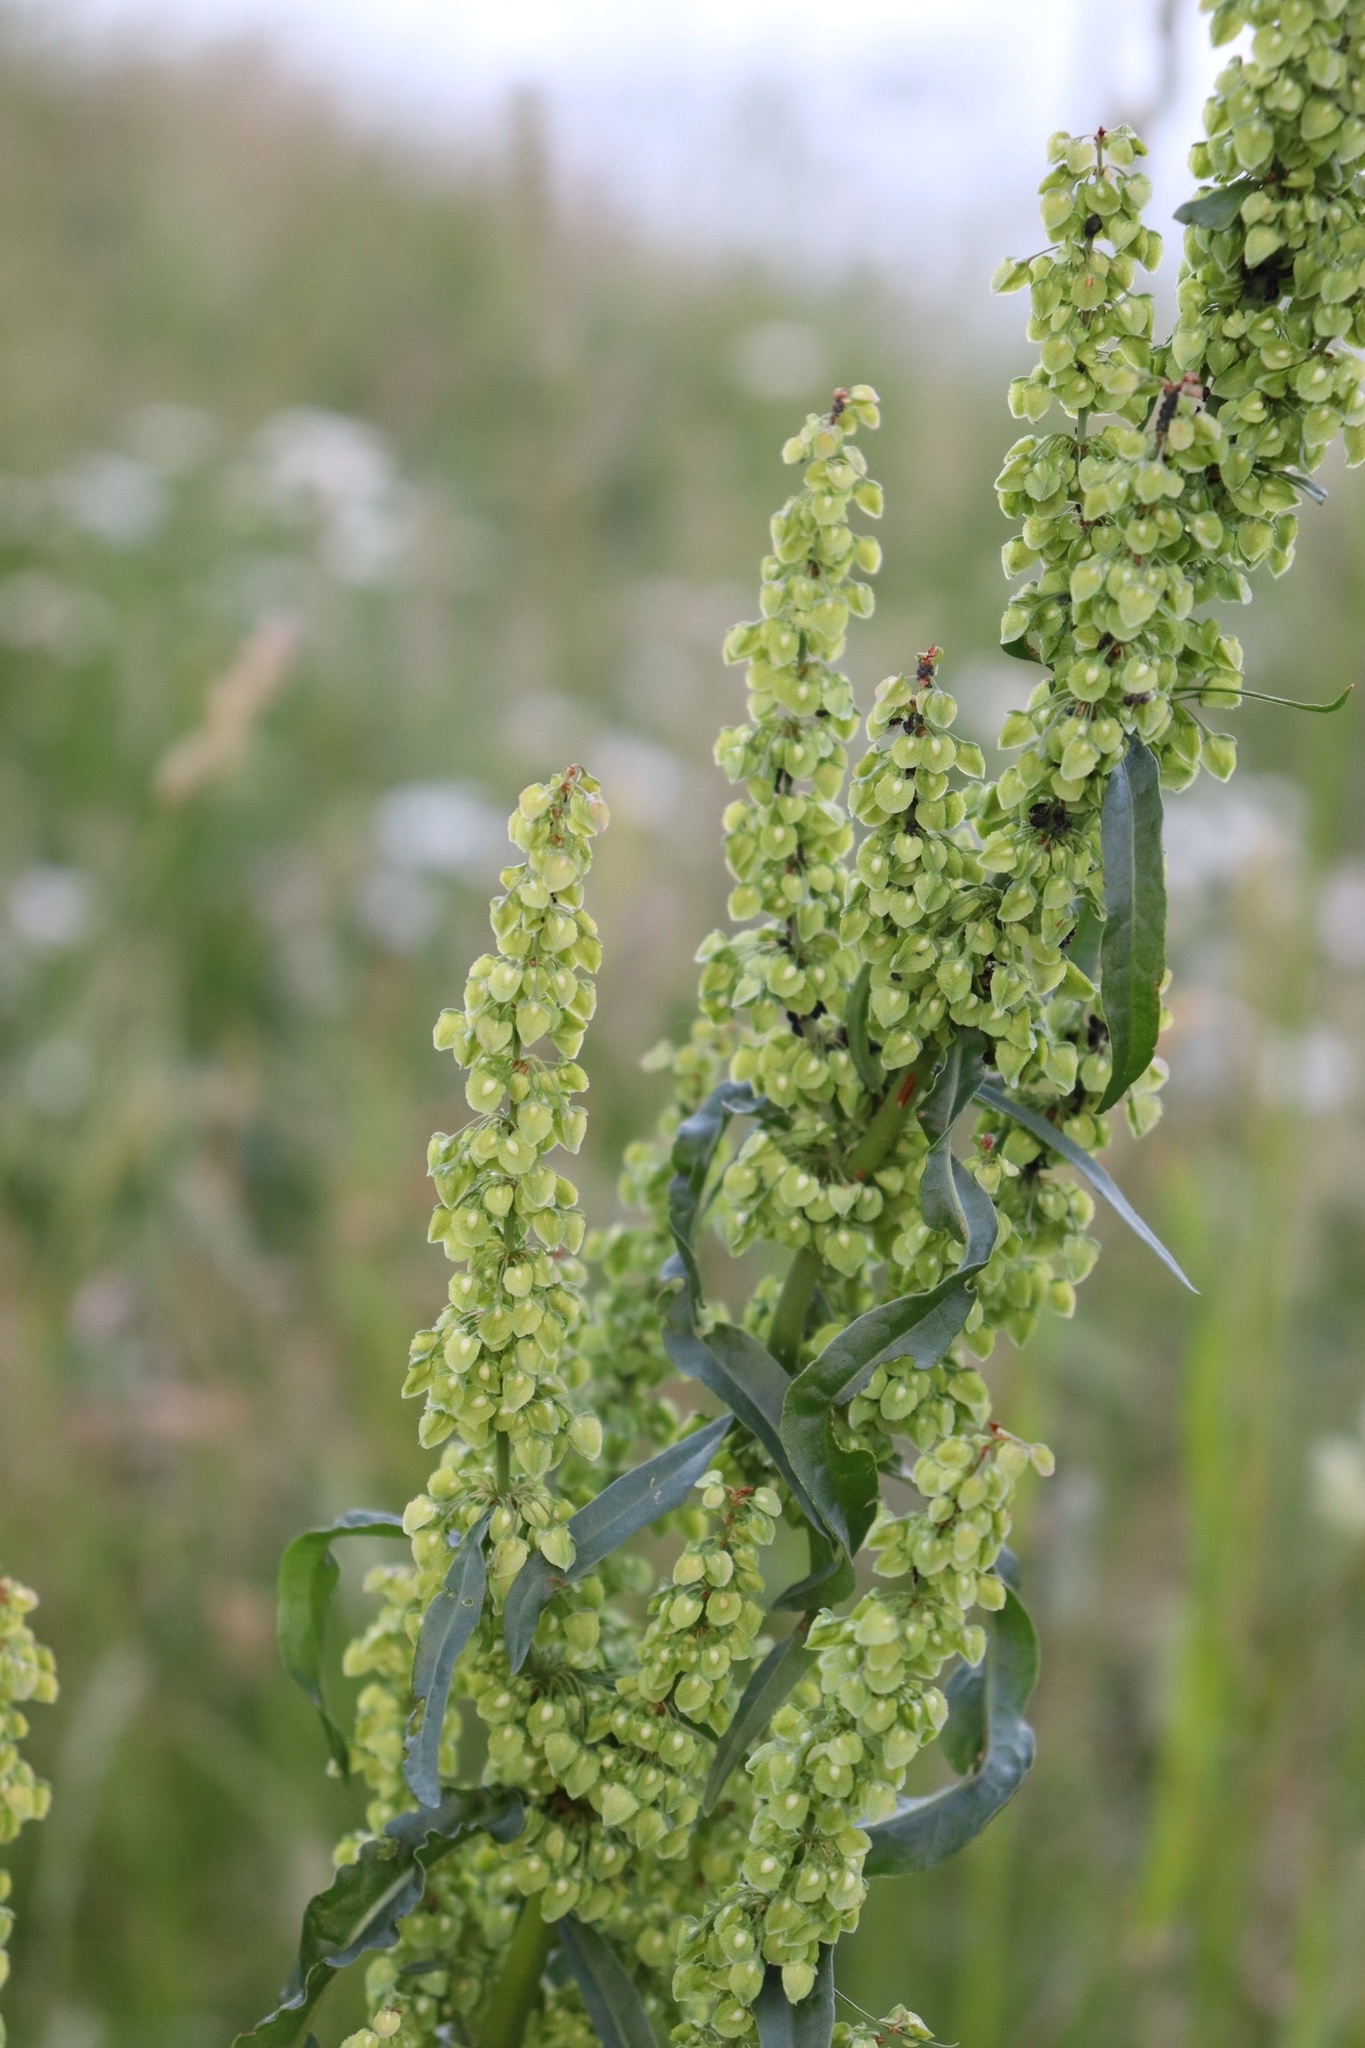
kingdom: Plantae
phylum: Tracheophyta
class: Magnoliopsida
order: Caryophyllales
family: Polygonaceae
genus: Rumex
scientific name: Rumex crispus
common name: Curled dock
